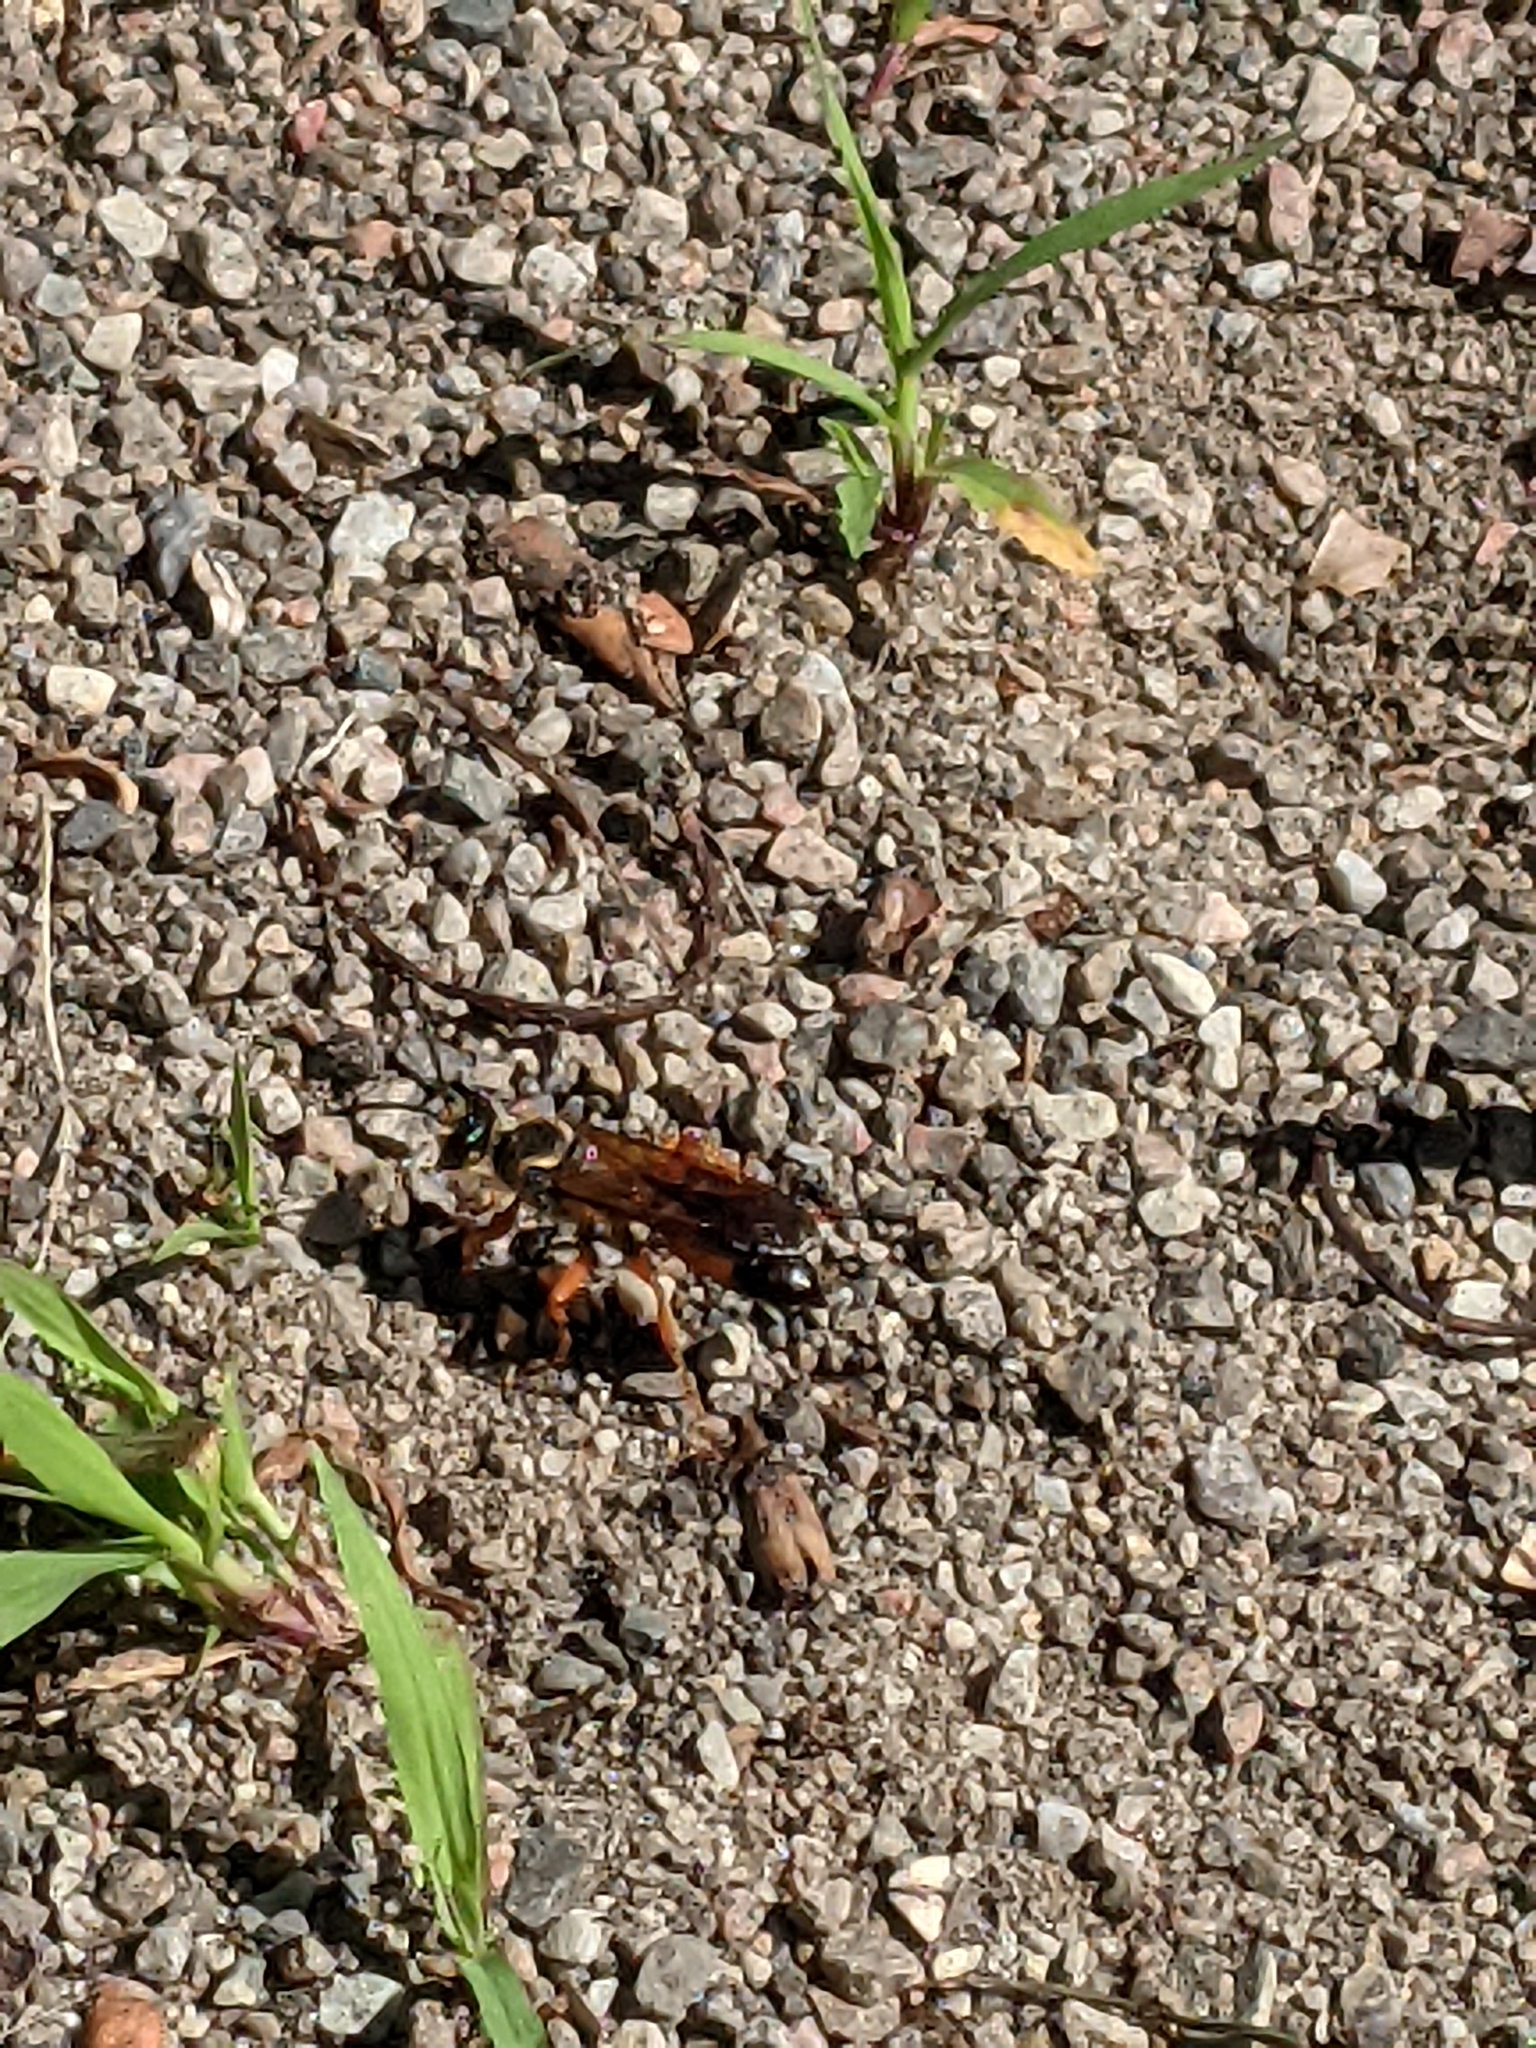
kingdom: Animalia
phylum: Arthropoda
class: Insecta
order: Hymenoptera
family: Sphecidae
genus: Sphex
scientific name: Sphex ichneumoneus
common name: Great golden digger wasp
